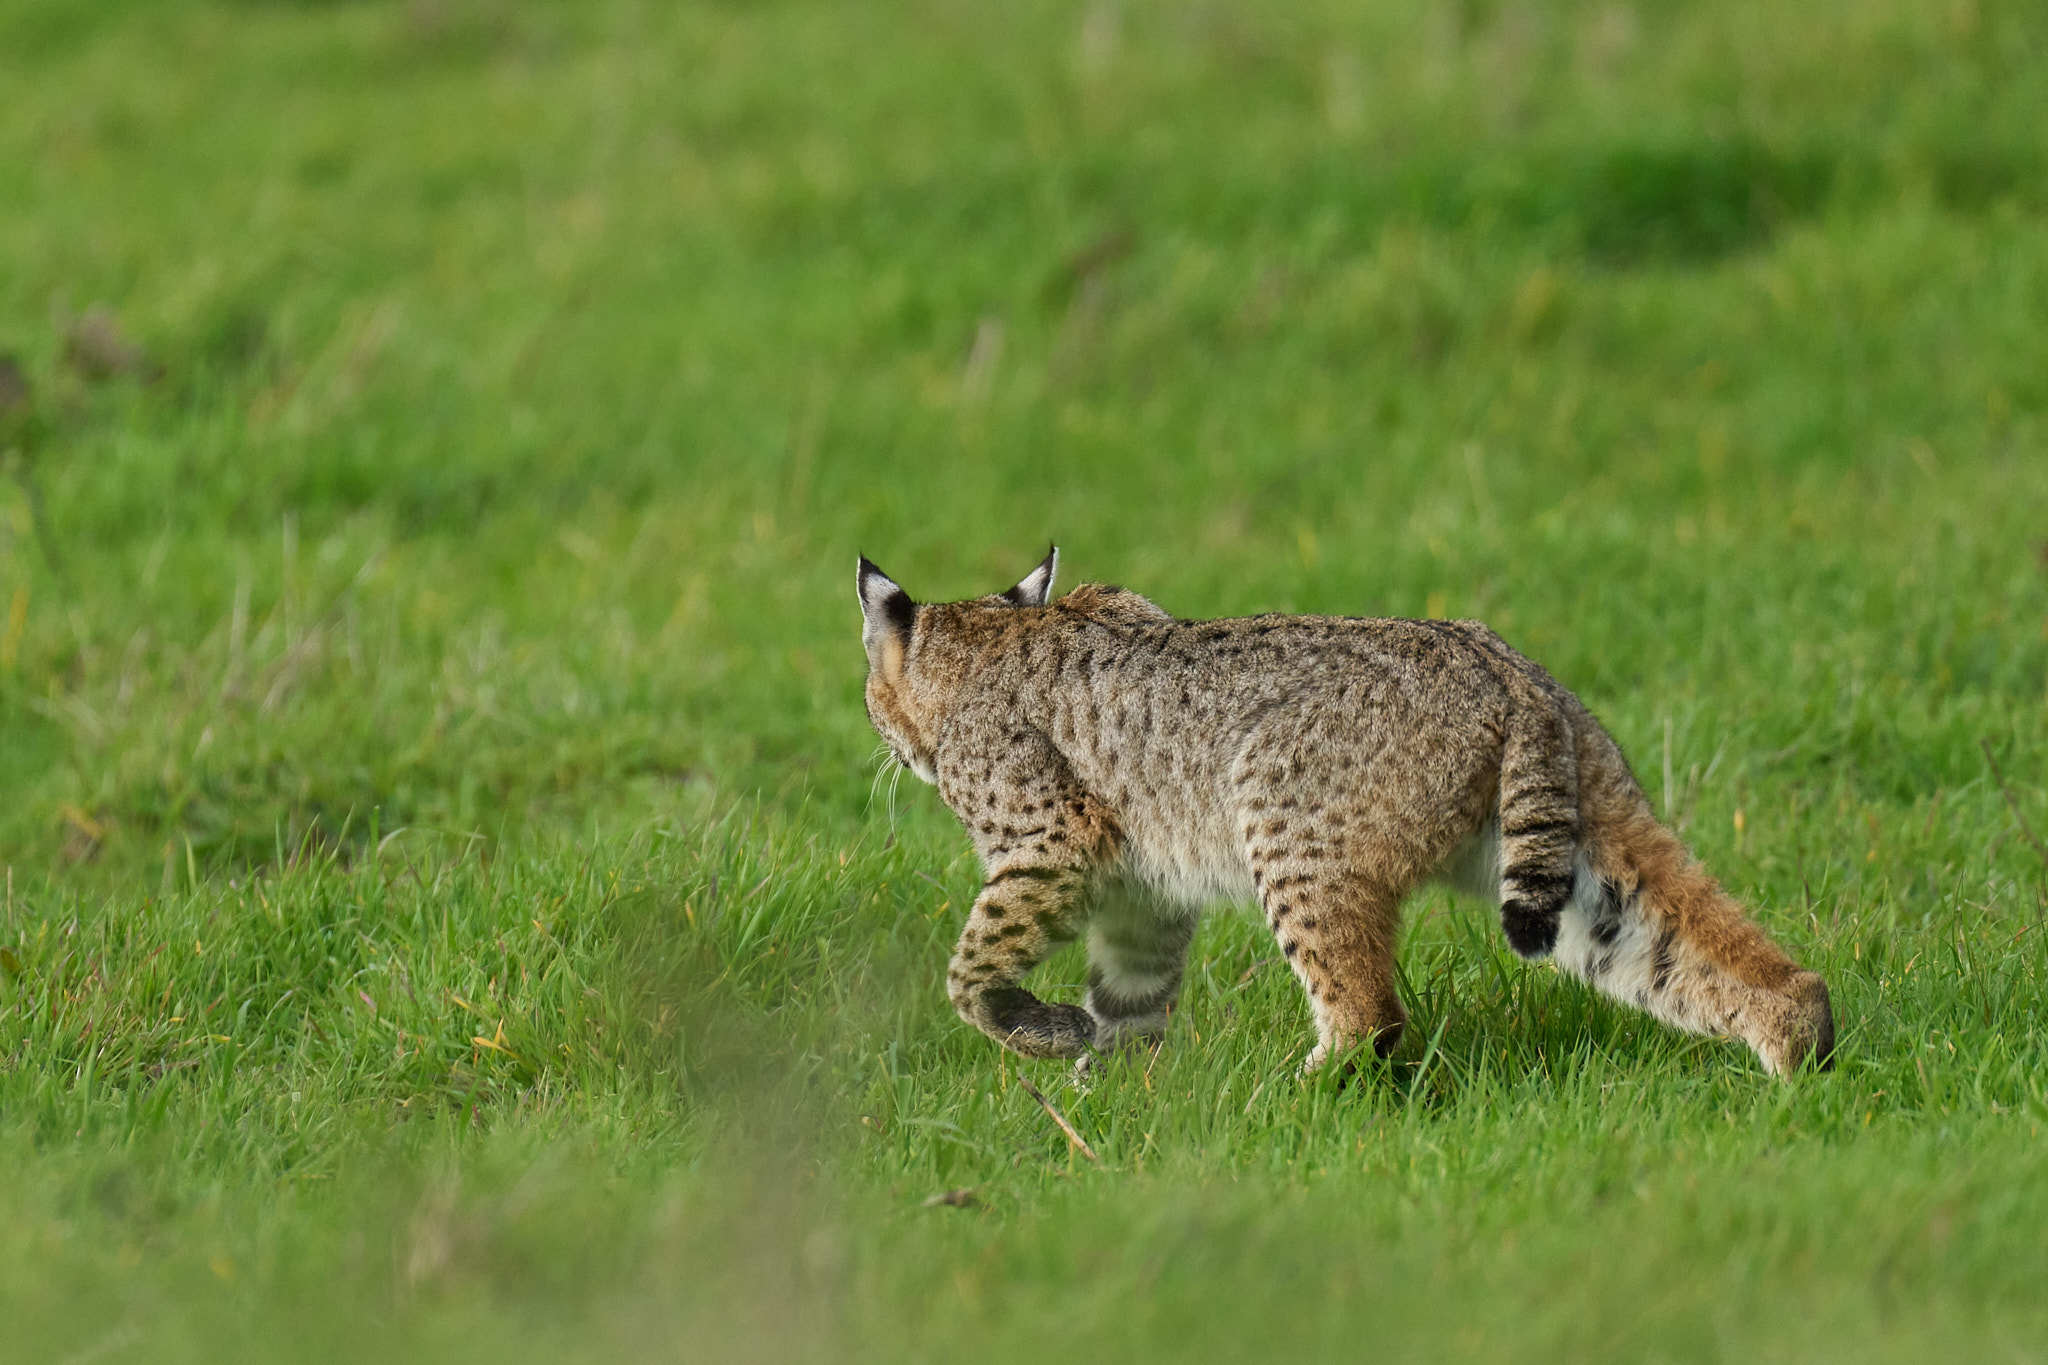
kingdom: Animalia
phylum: Chordata
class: Mammalia
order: Carnivora
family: Felidae
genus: Lynx
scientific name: Lynx rufus
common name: Bobcat
